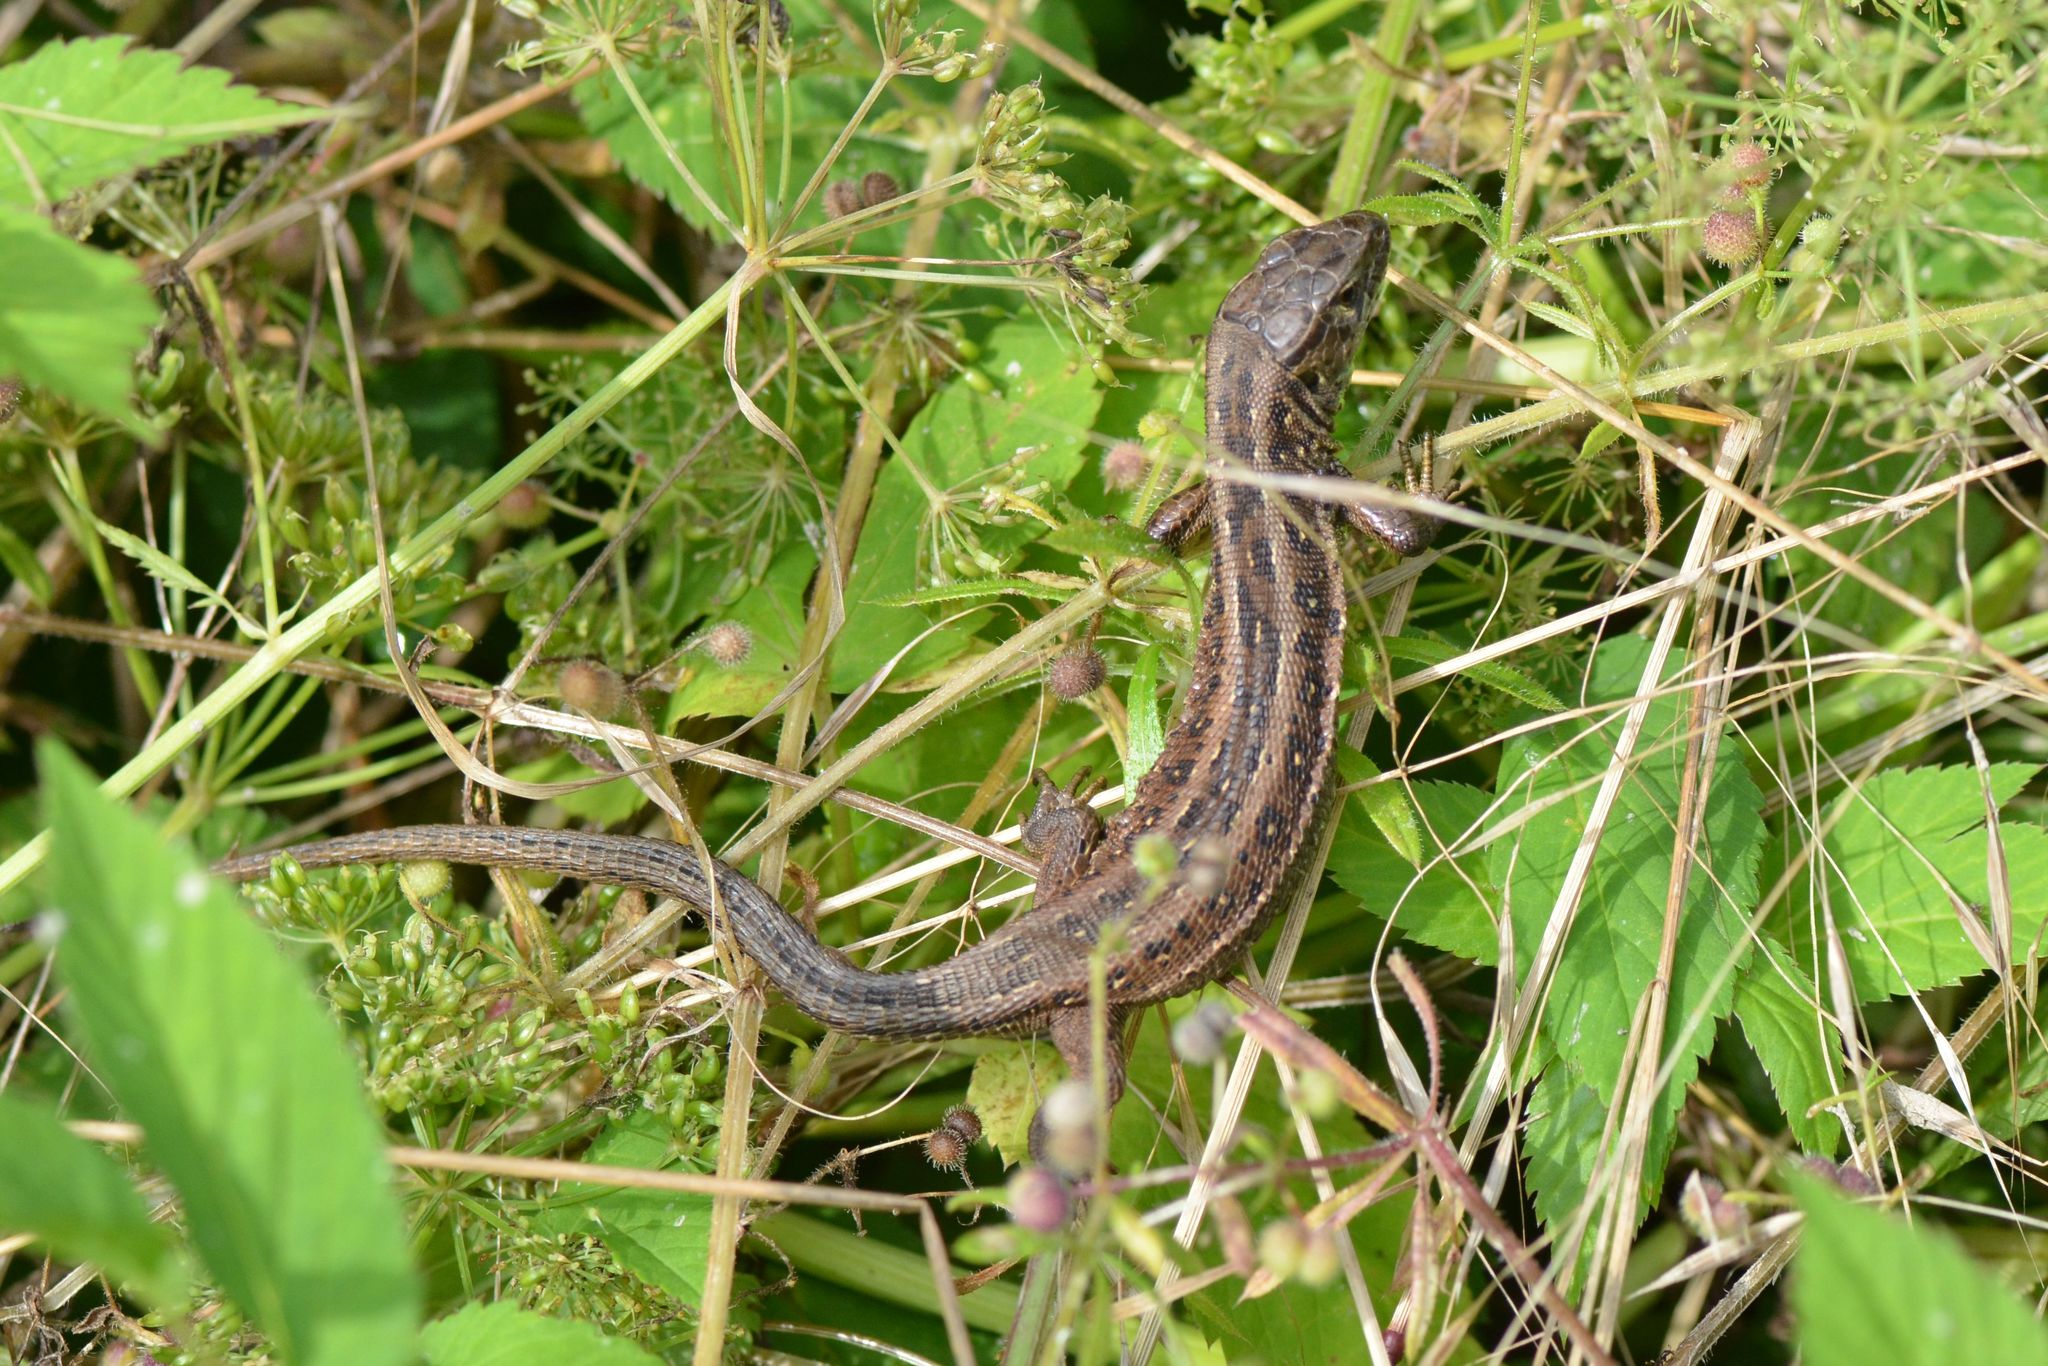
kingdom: Animalia
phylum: Chordata
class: Squamata
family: Lacertidae
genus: Lacerta
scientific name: Lacerta agilis
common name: Sand lizard
